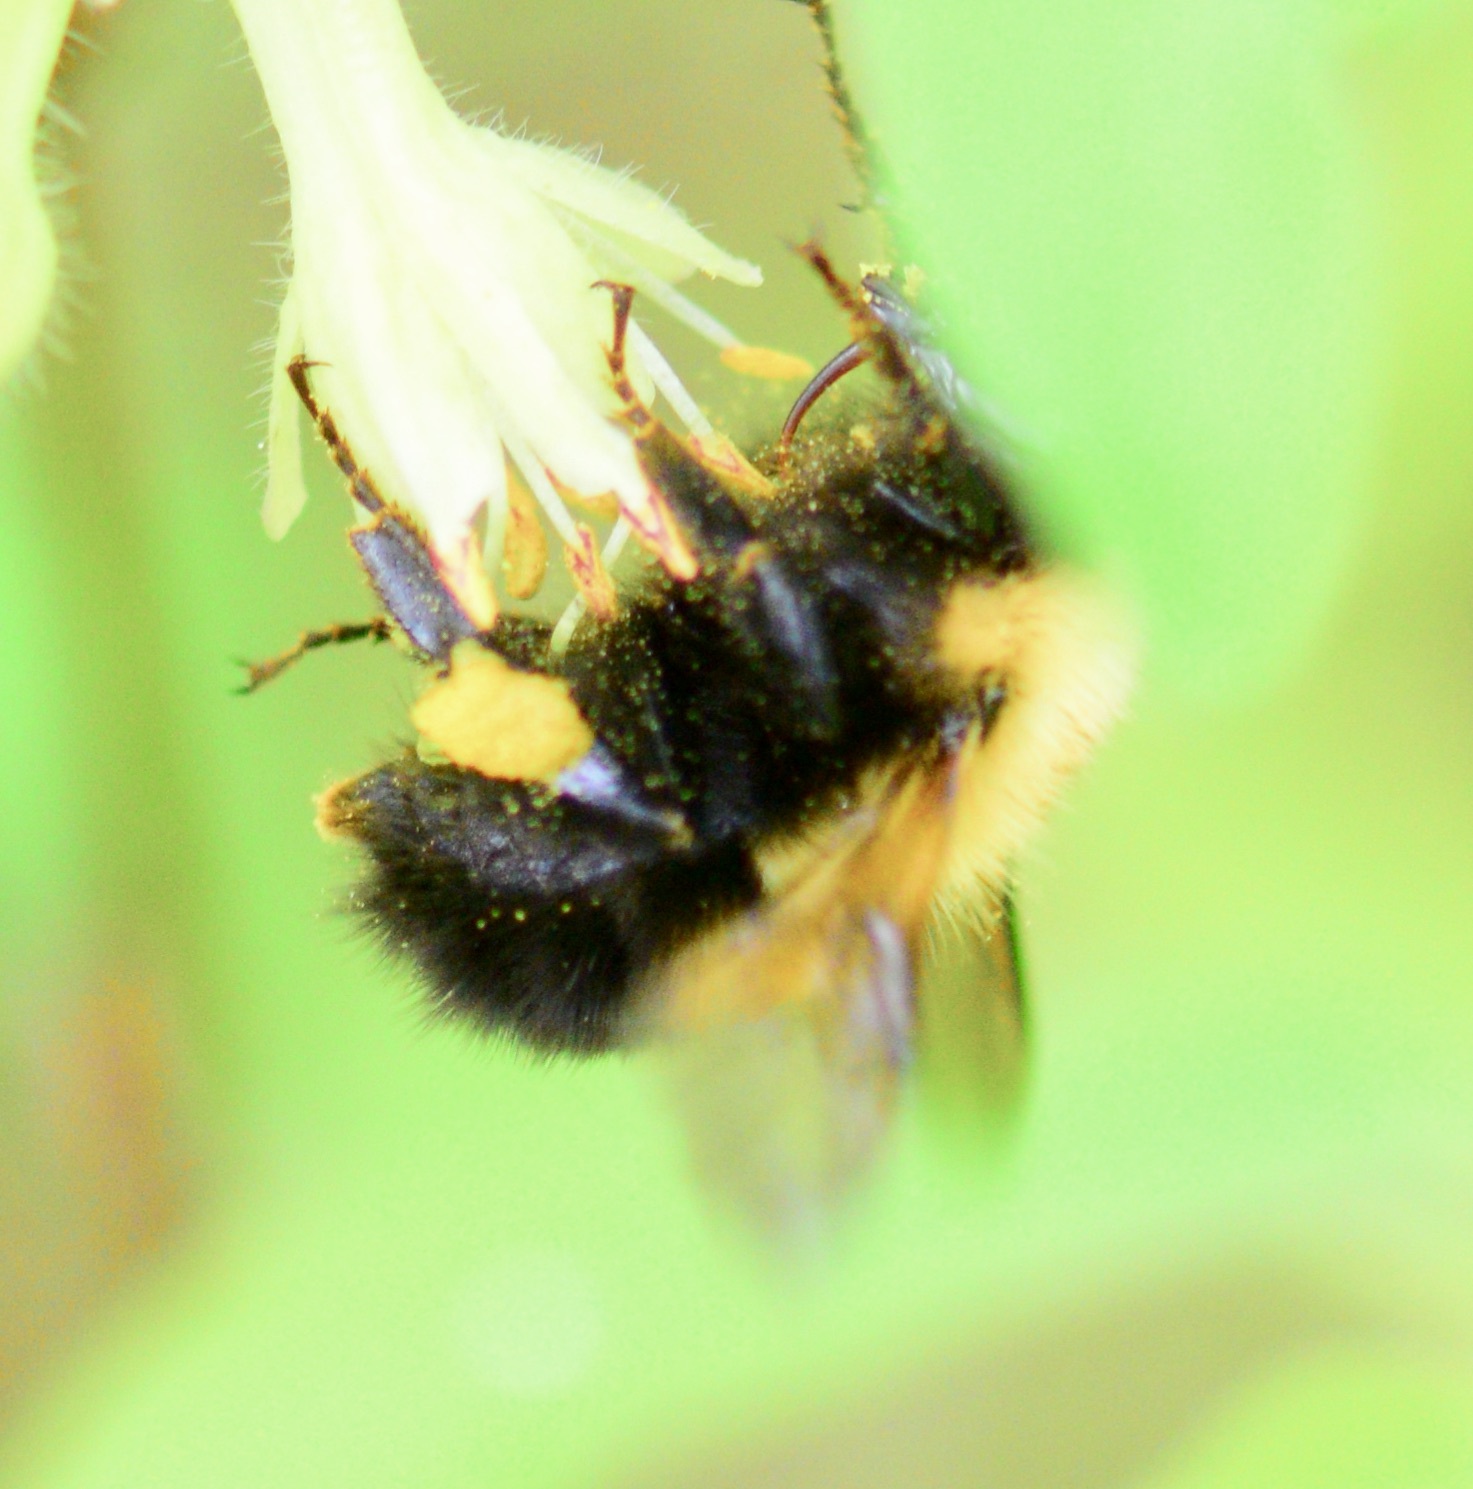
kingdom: Animalia
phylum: Arthropoda
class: Insecta
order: Hymenoptera
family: Apidae
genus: Bombus
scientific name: Bombus perplexus
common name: Confusing bumble bee
